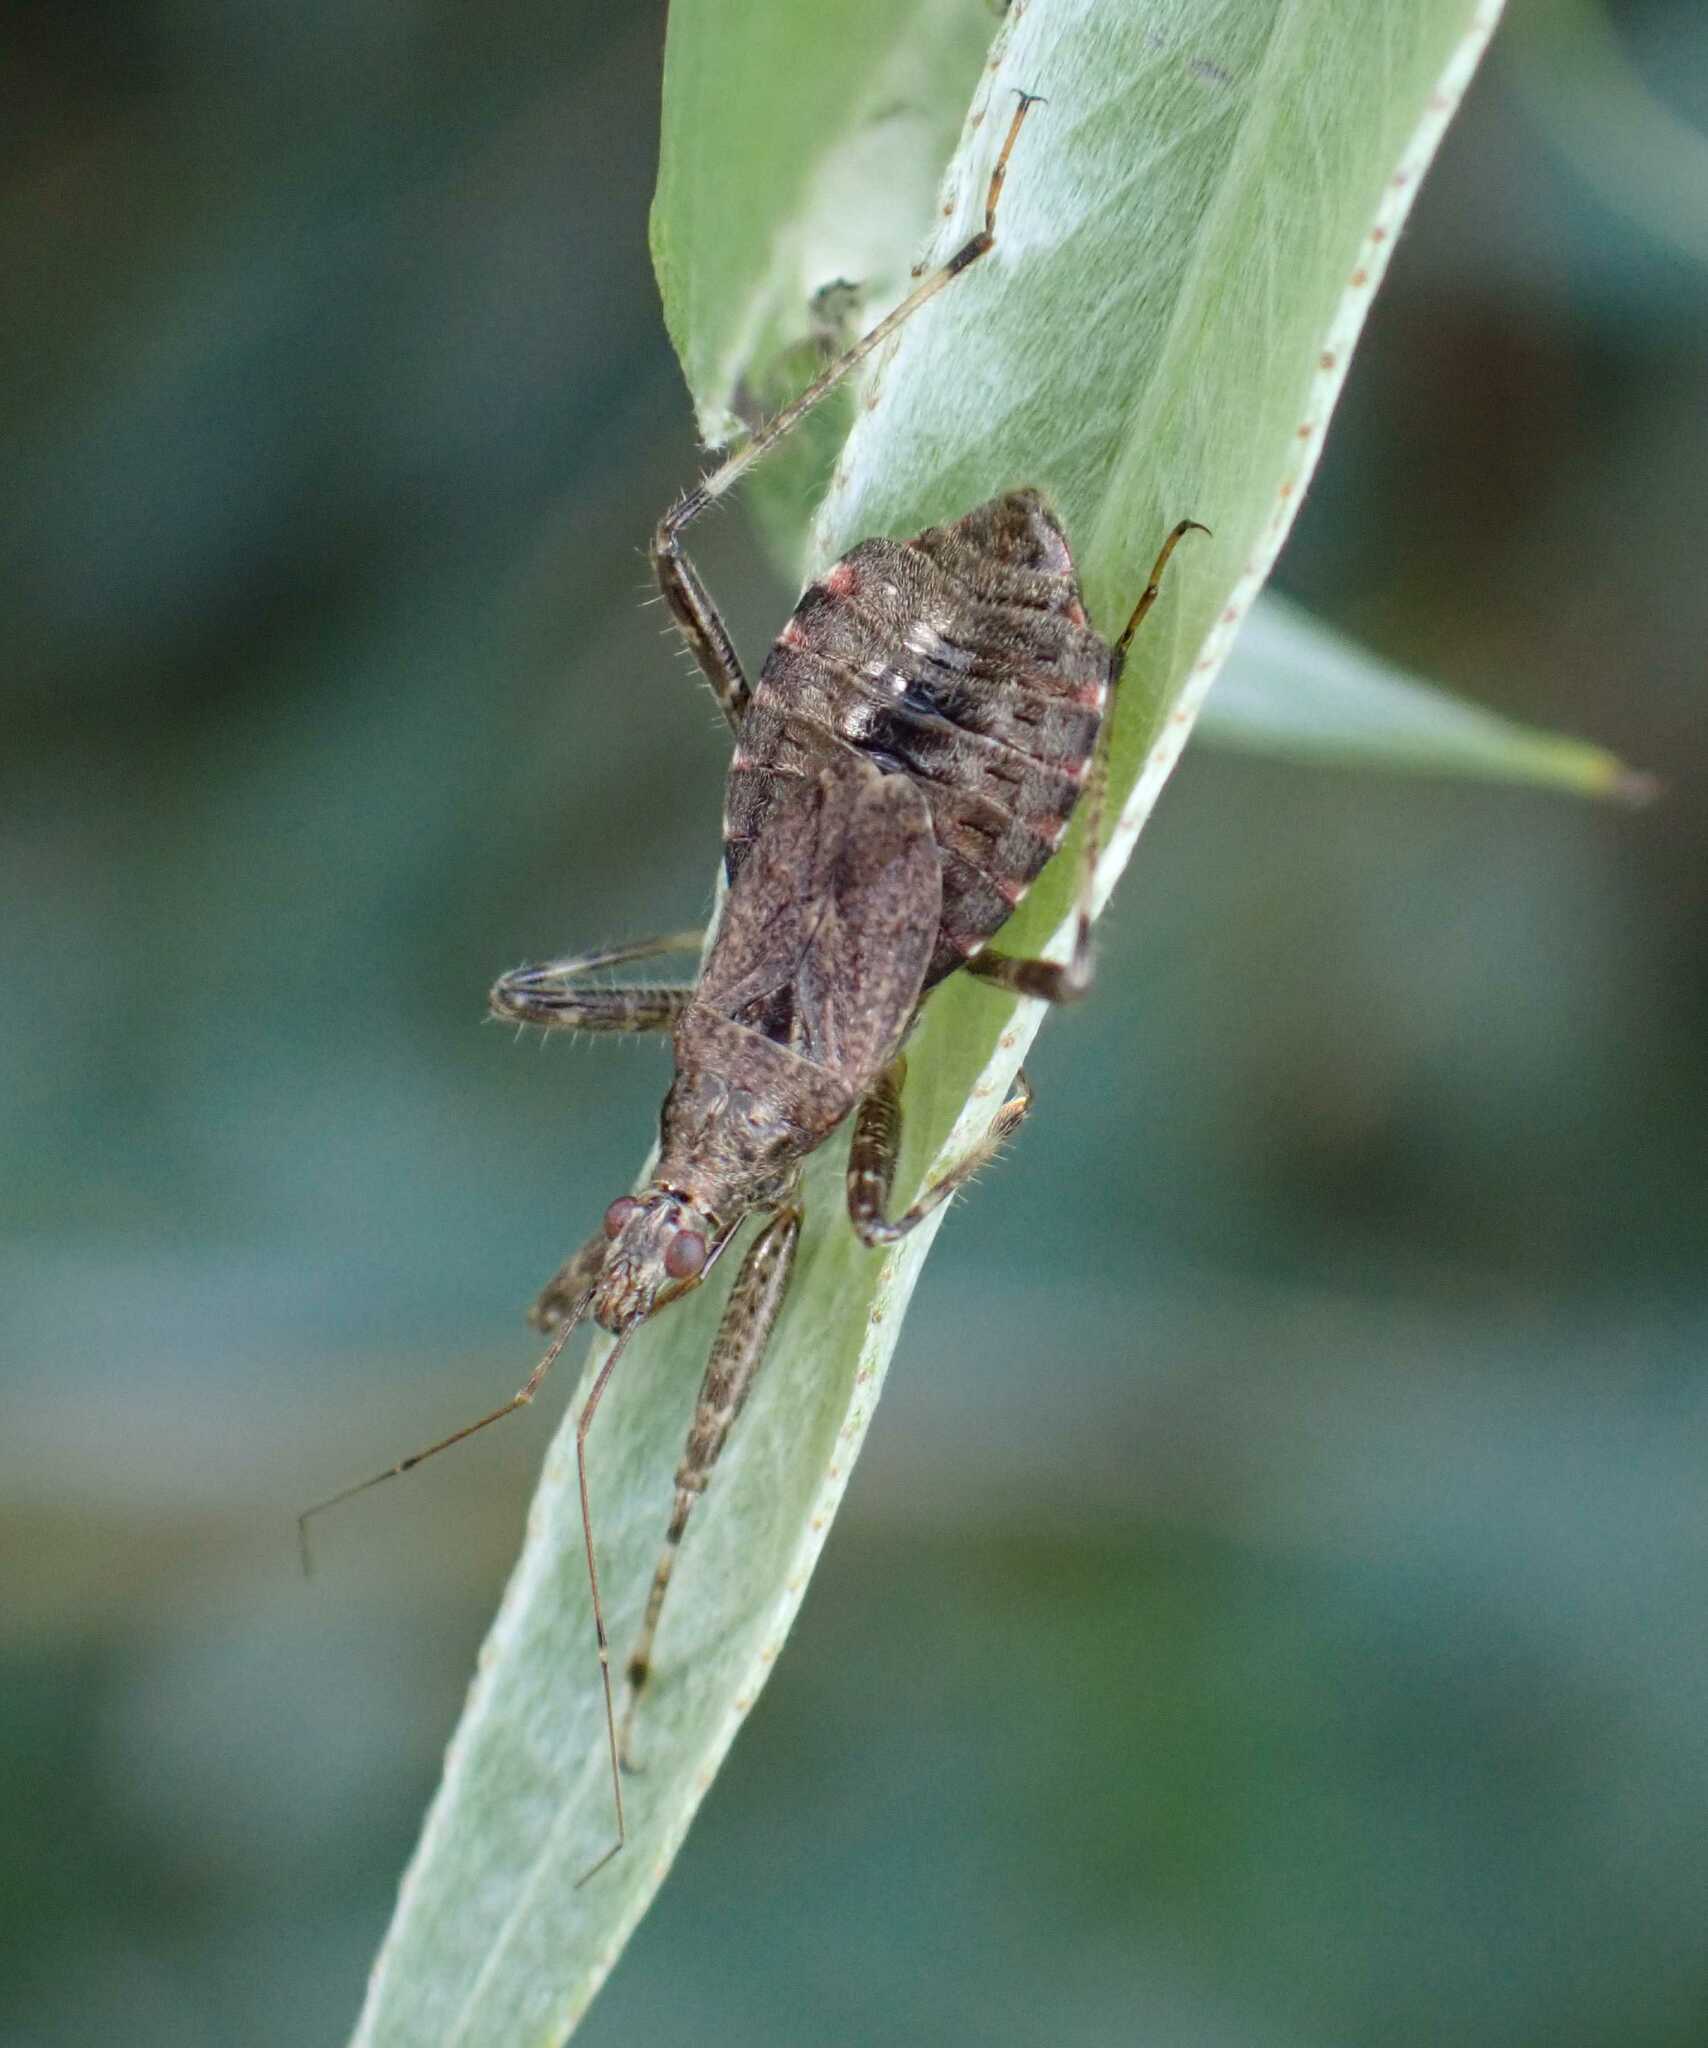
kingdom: Animalia
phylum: Arthropoda
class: Insecta
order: Hemiptera
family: Nabidae
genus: Himacerus
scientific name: Himacerus apterus
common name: Tree damsel bug
